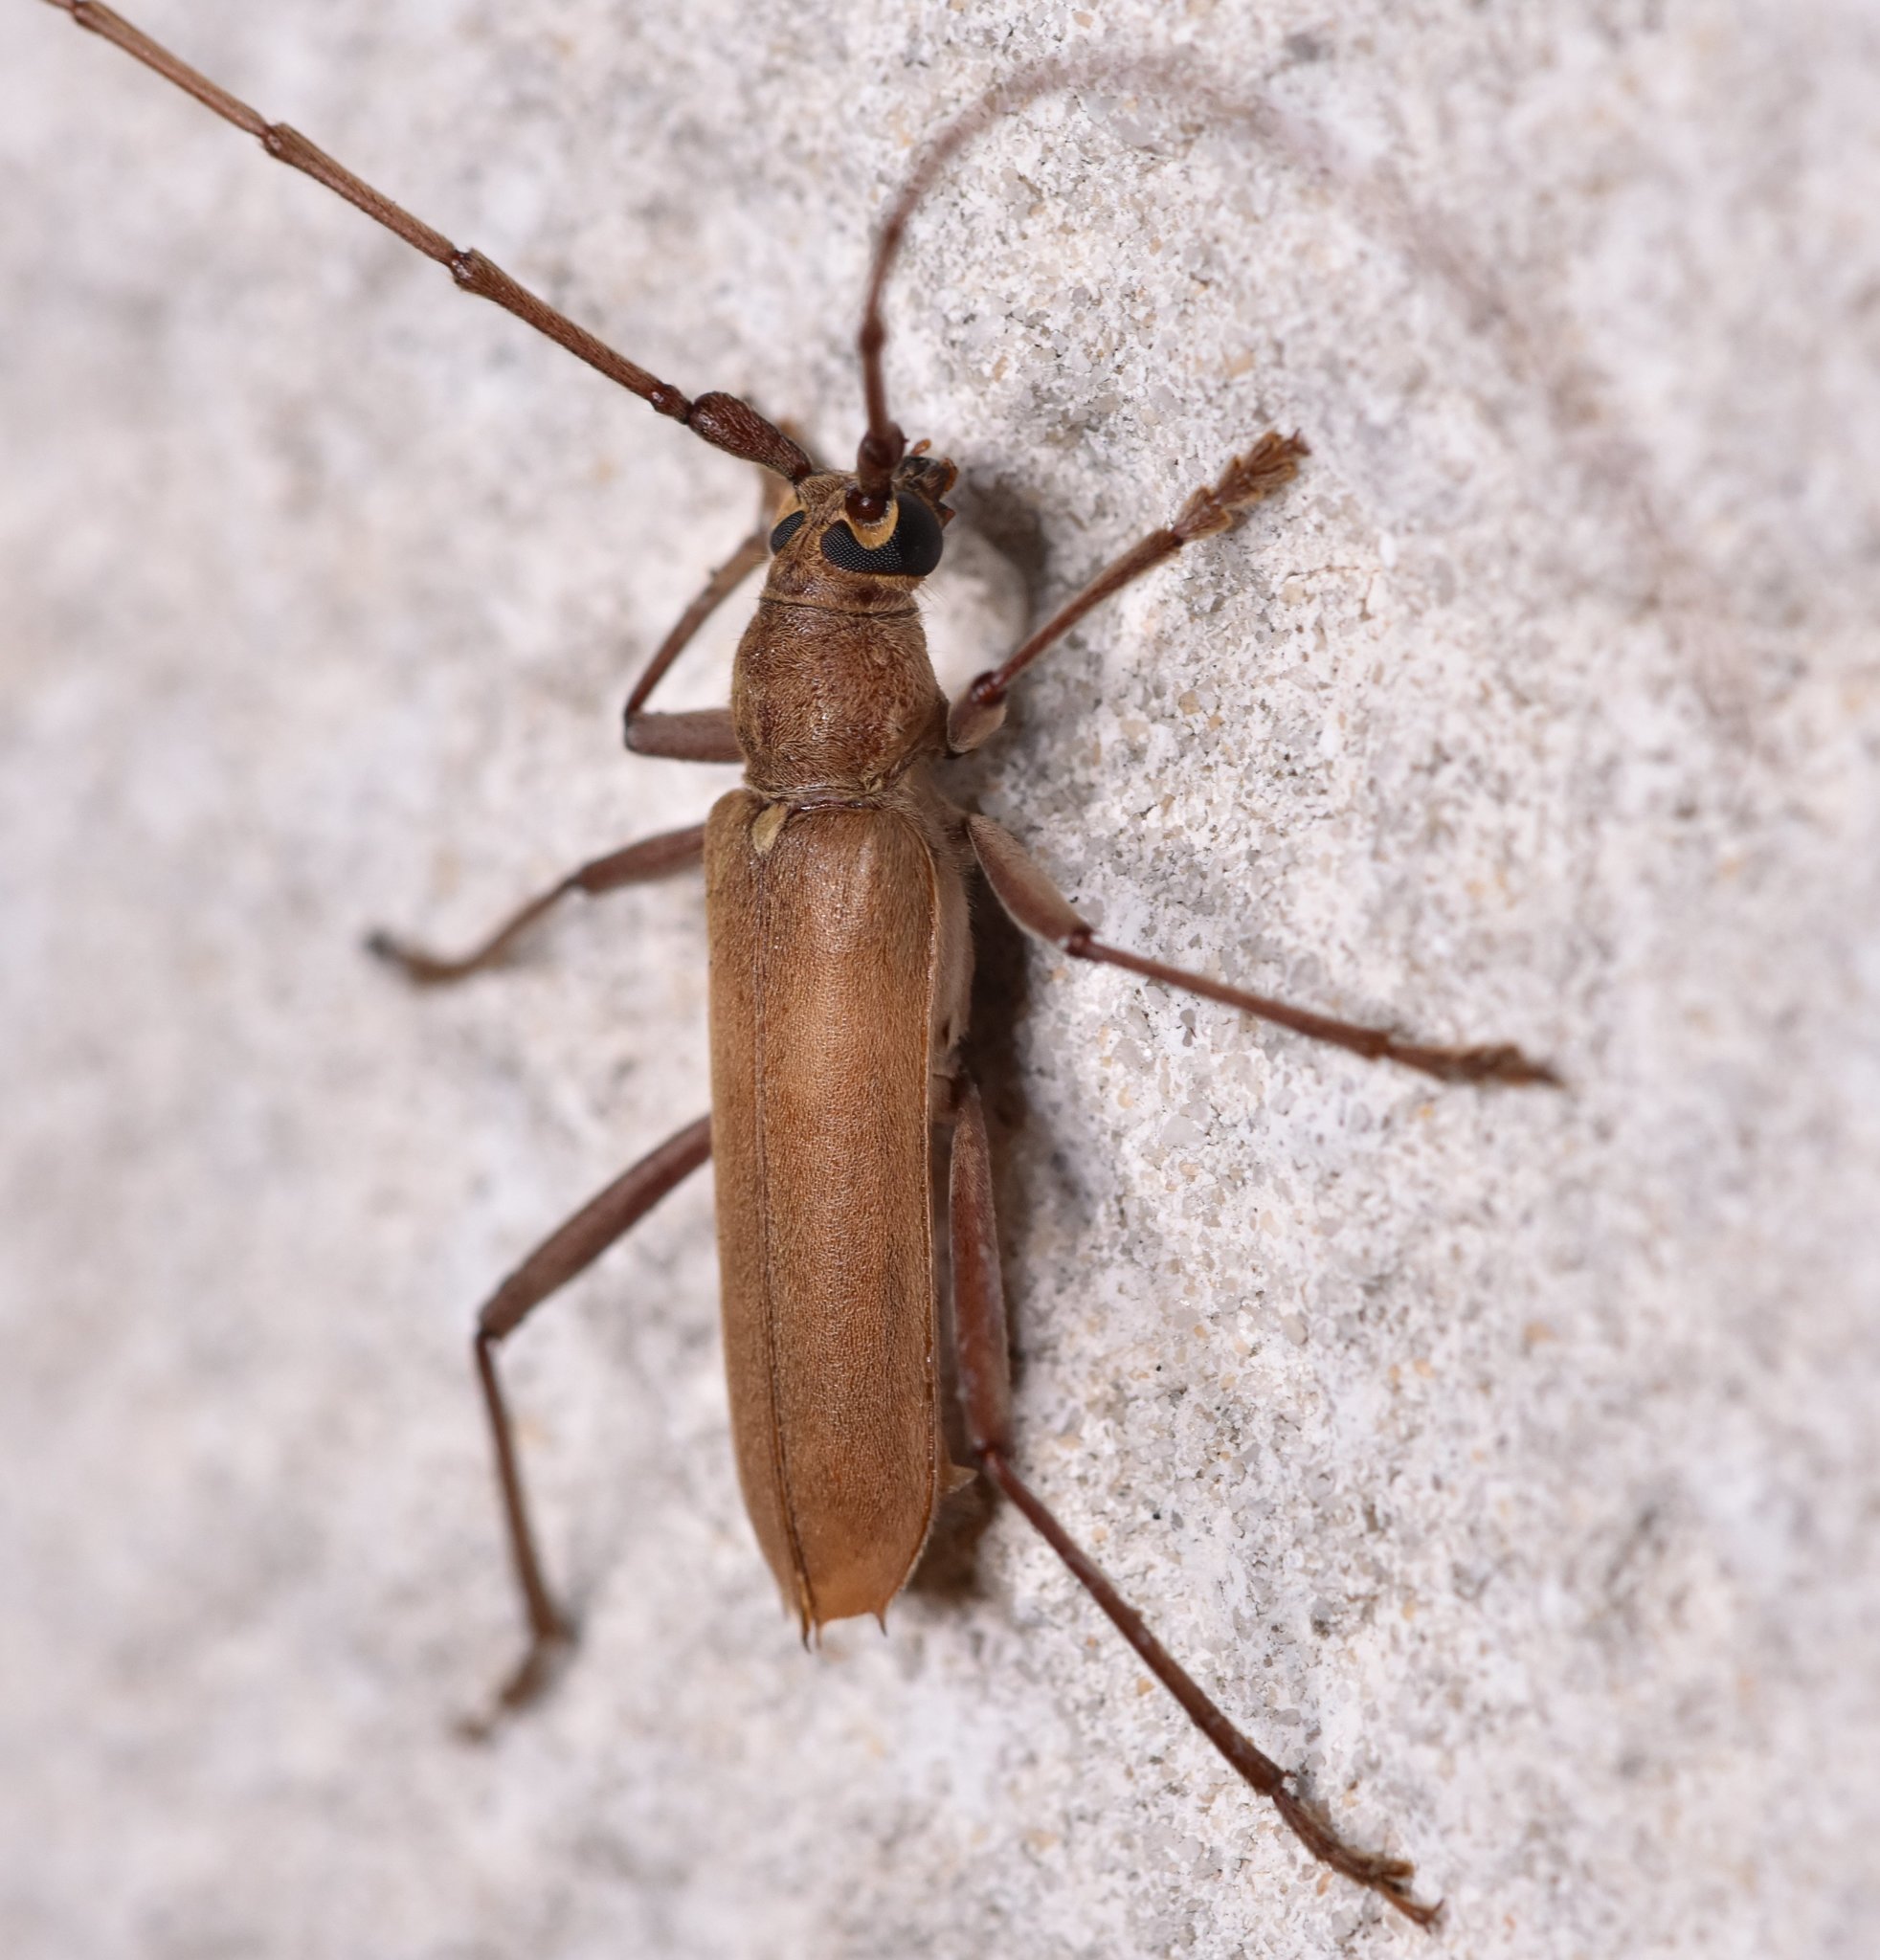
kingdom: Animalia
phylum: Arthropoda
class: Insecta
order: Coleoptera
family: Cerambycidae
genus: Knulliana
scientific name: Knulliana cincta
